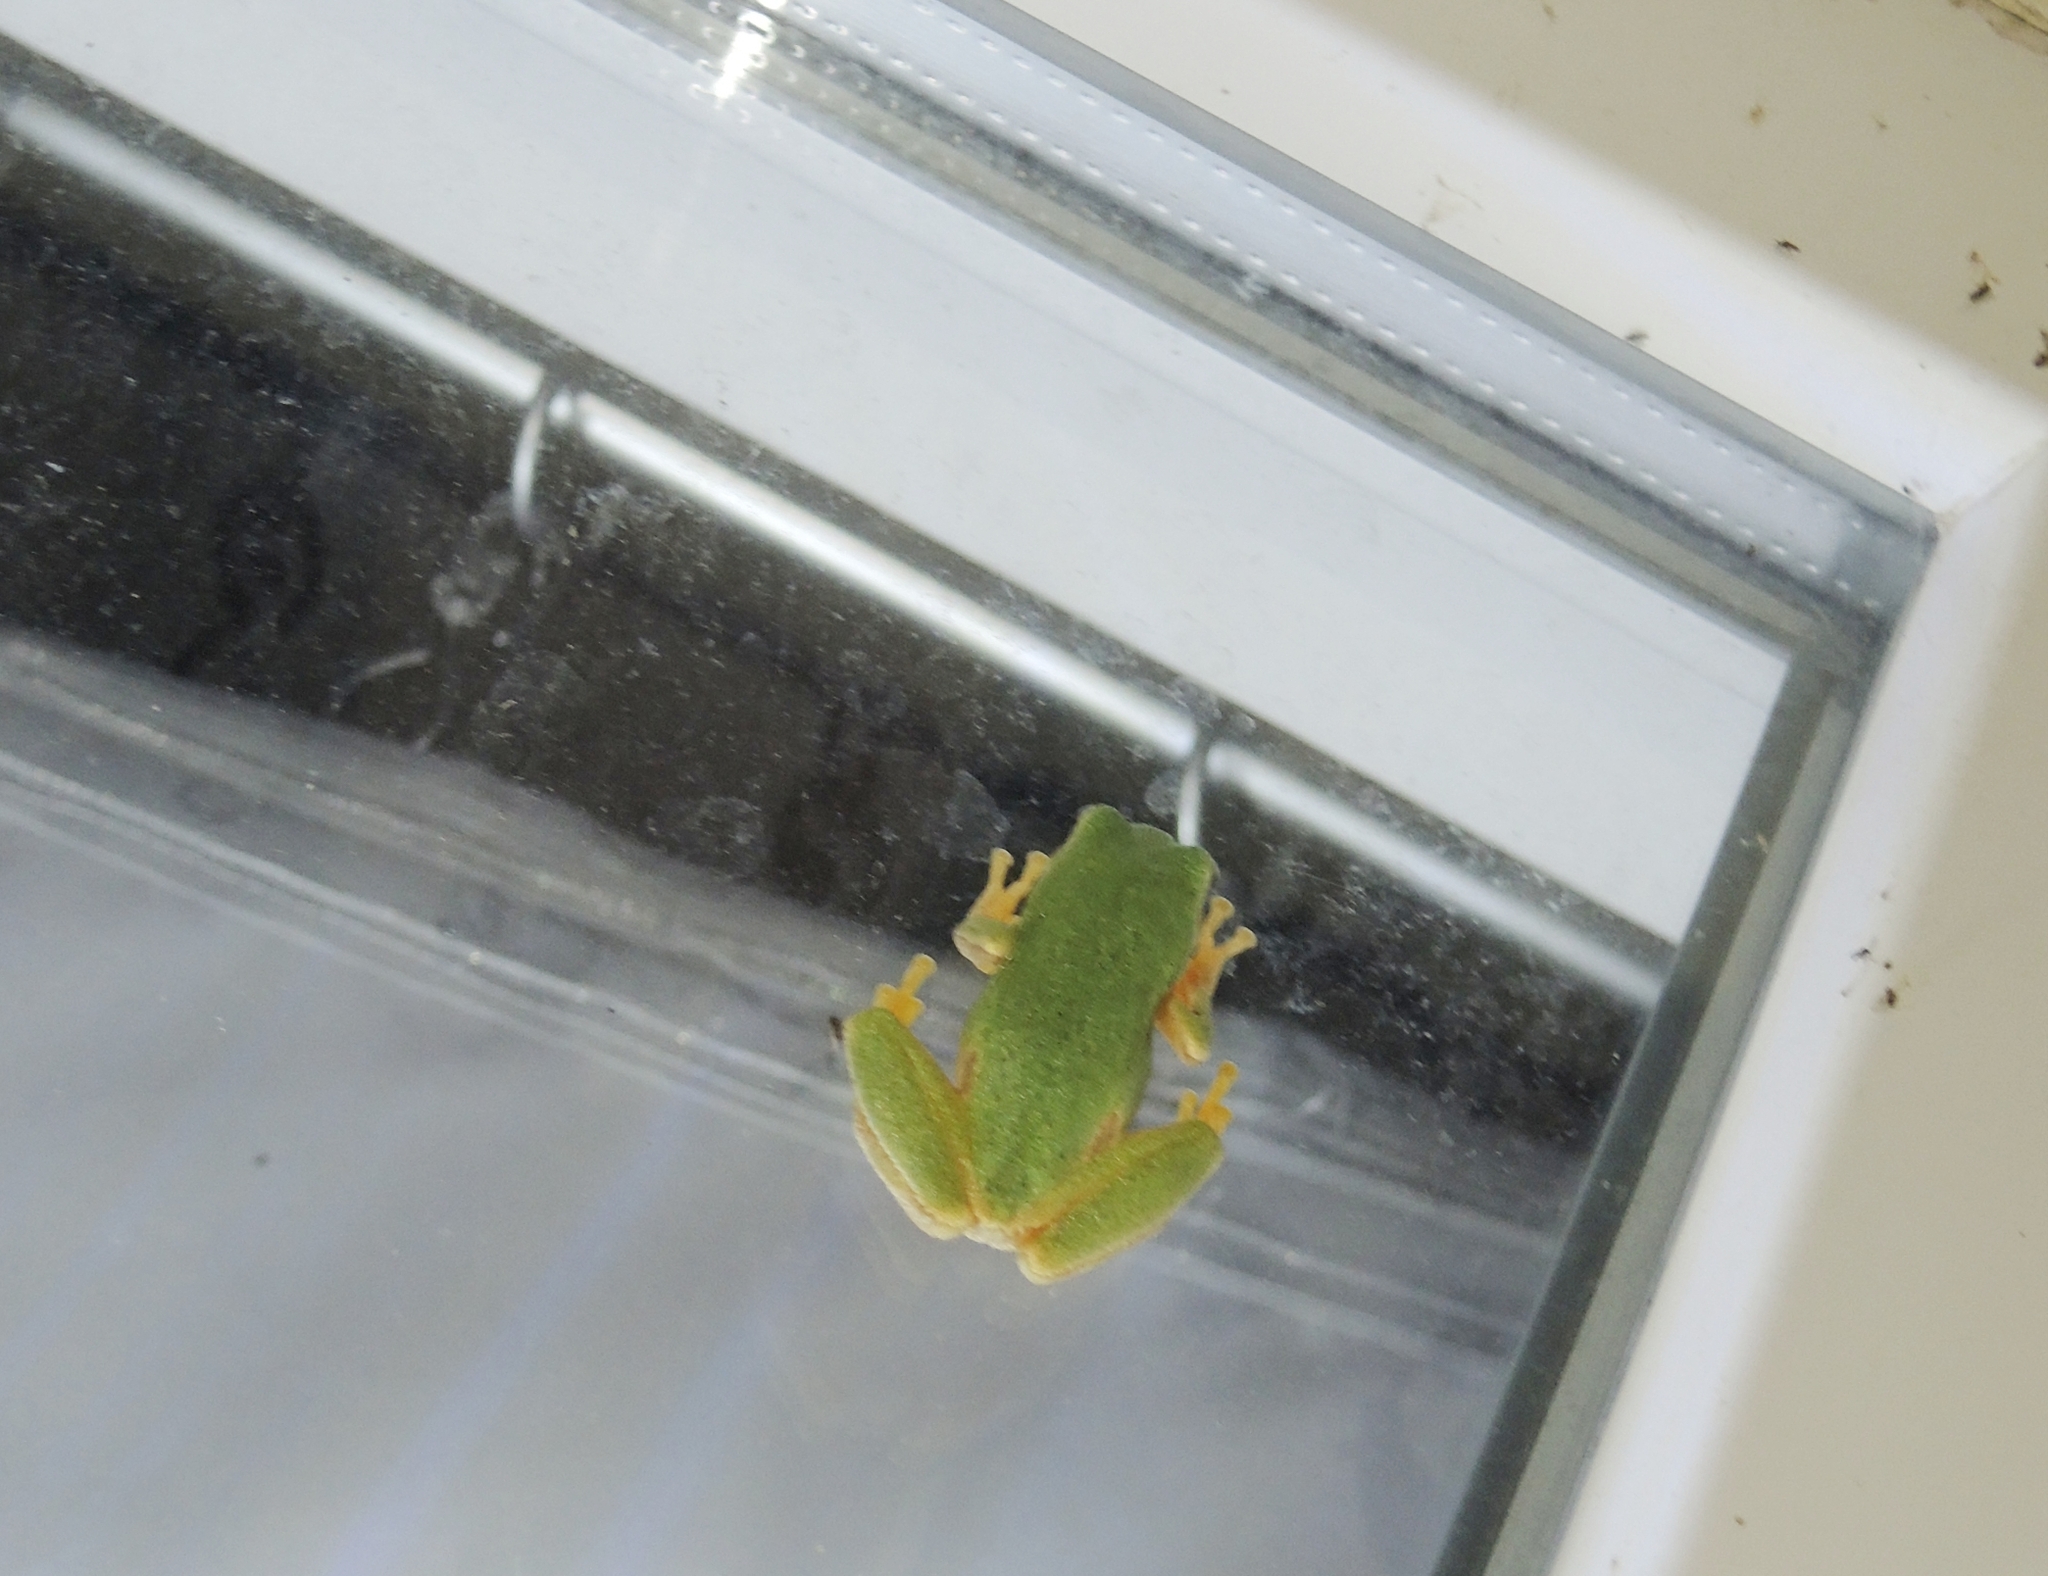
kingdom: Animalia
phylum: Chordata
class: Amphibia
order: Anura
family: Hylidae
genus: Hyla
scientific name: Hyla orientalis
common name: Caucasian treefrog
